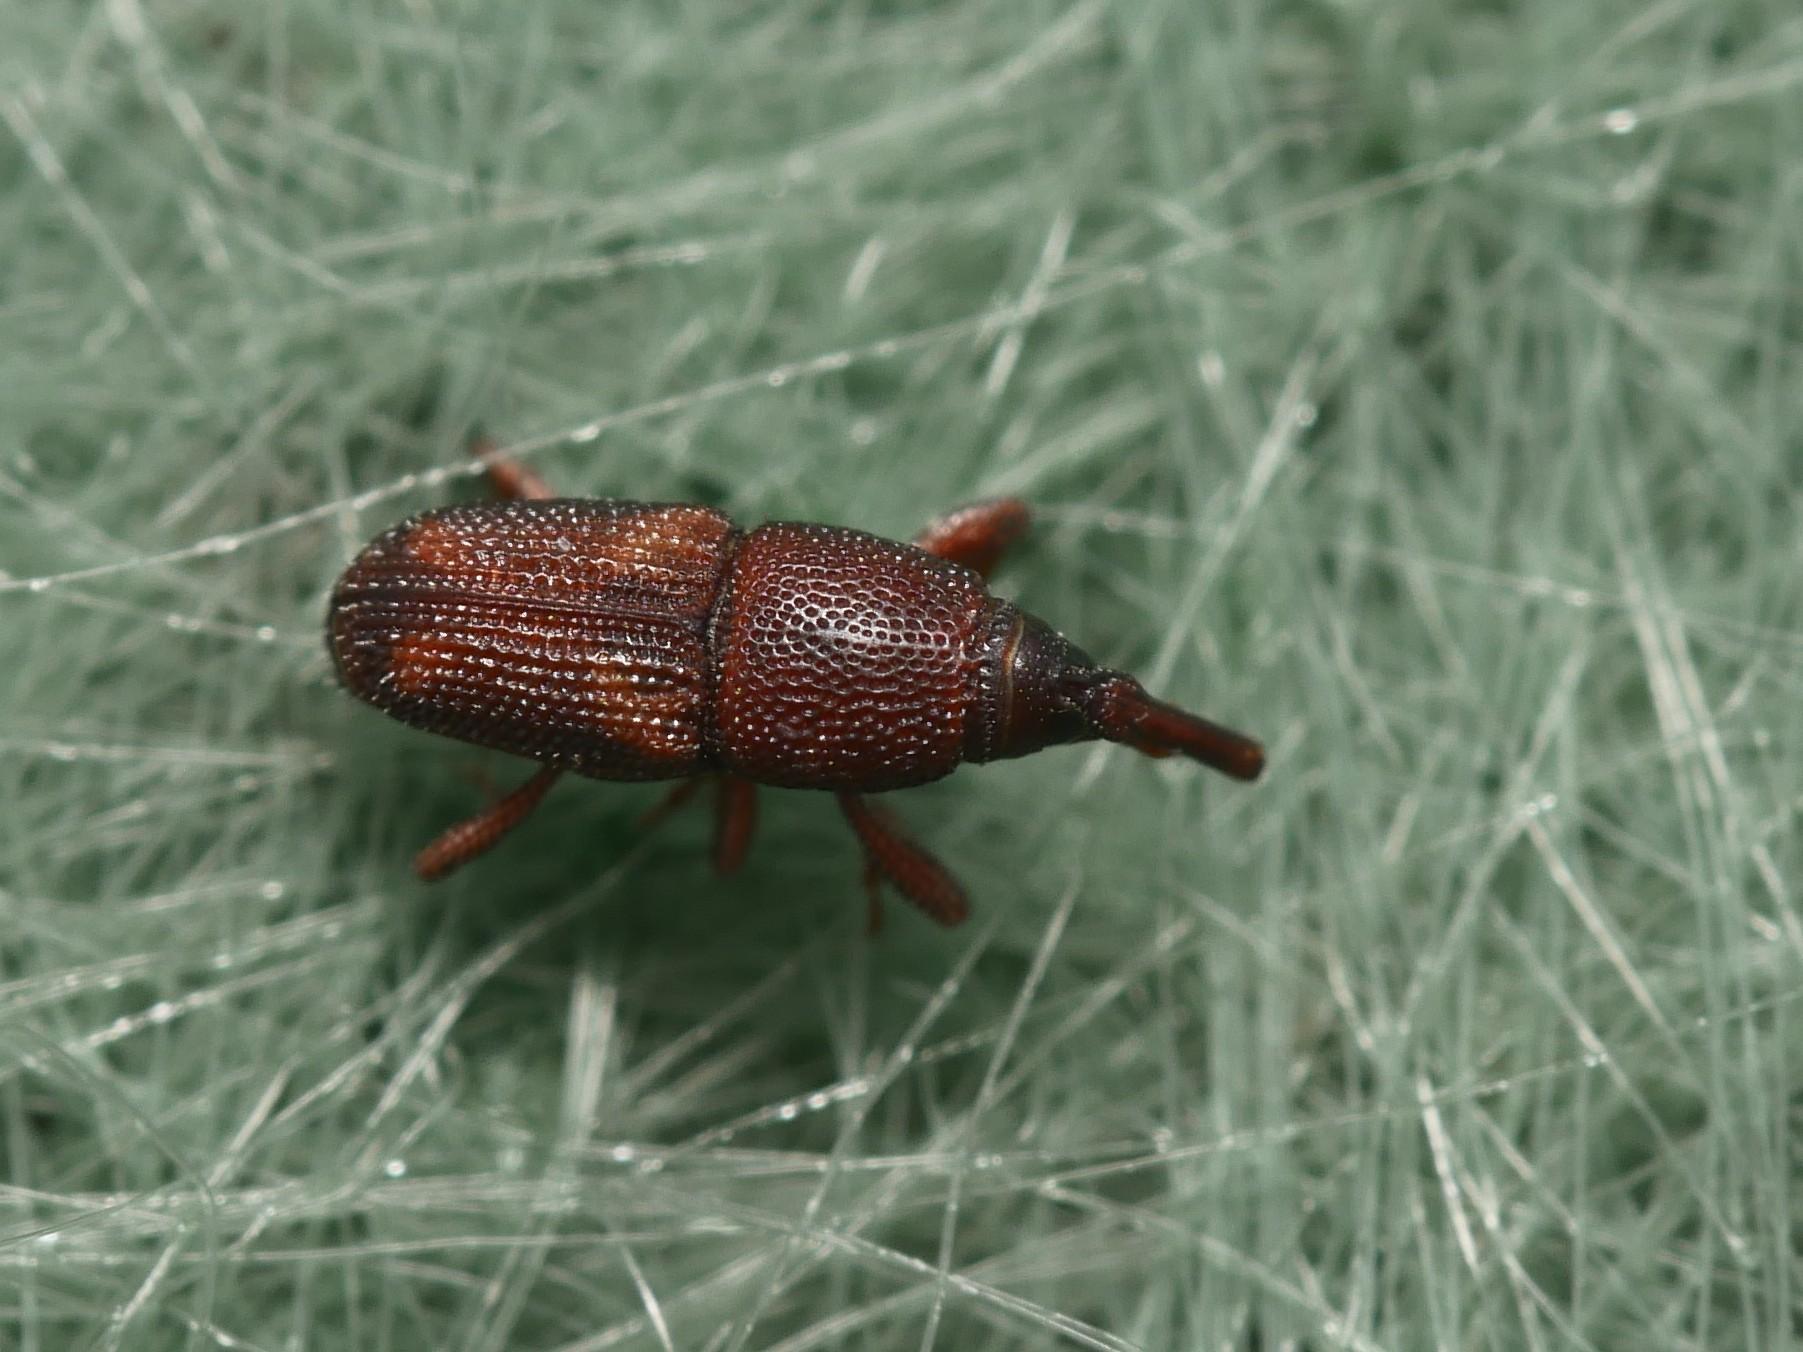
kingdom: Animalia
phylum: Arthropoda
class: Insecta
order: Coleoptera
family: Dryophthoridae
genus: Sitophilus
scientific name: Sitophilus oryzae
